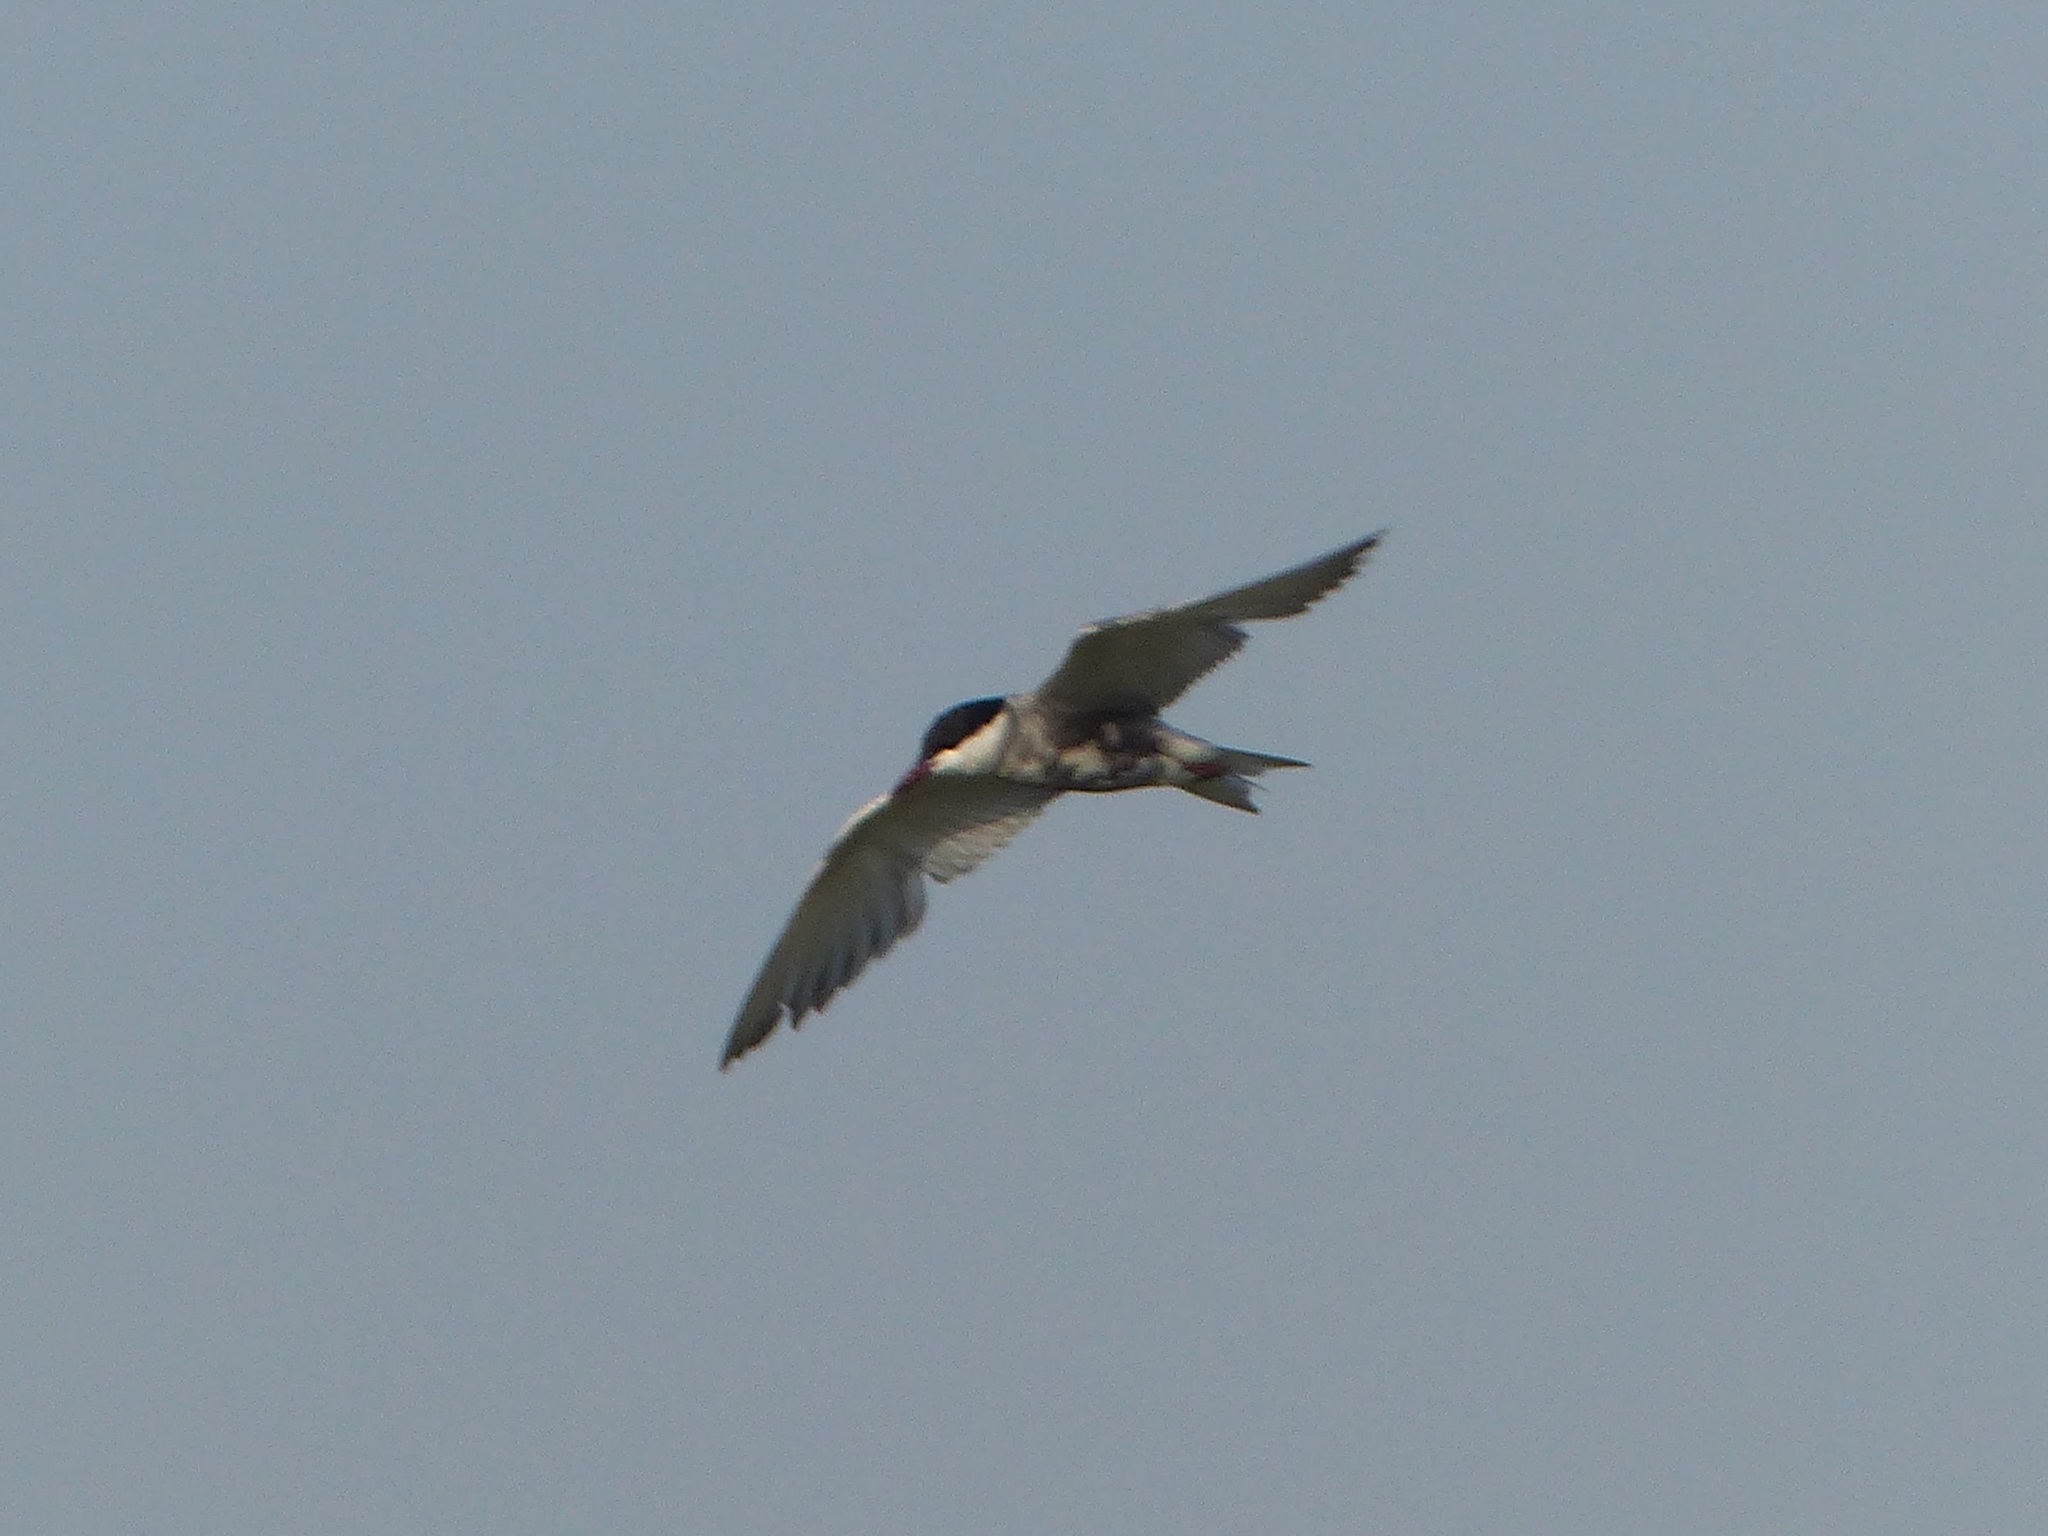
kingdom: Animalia
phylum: Chordata
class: Aves
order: Charadriiformes
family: Laridae
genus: Chlidonias
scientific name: Chlidonias hybrida
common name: Whiskered tern
